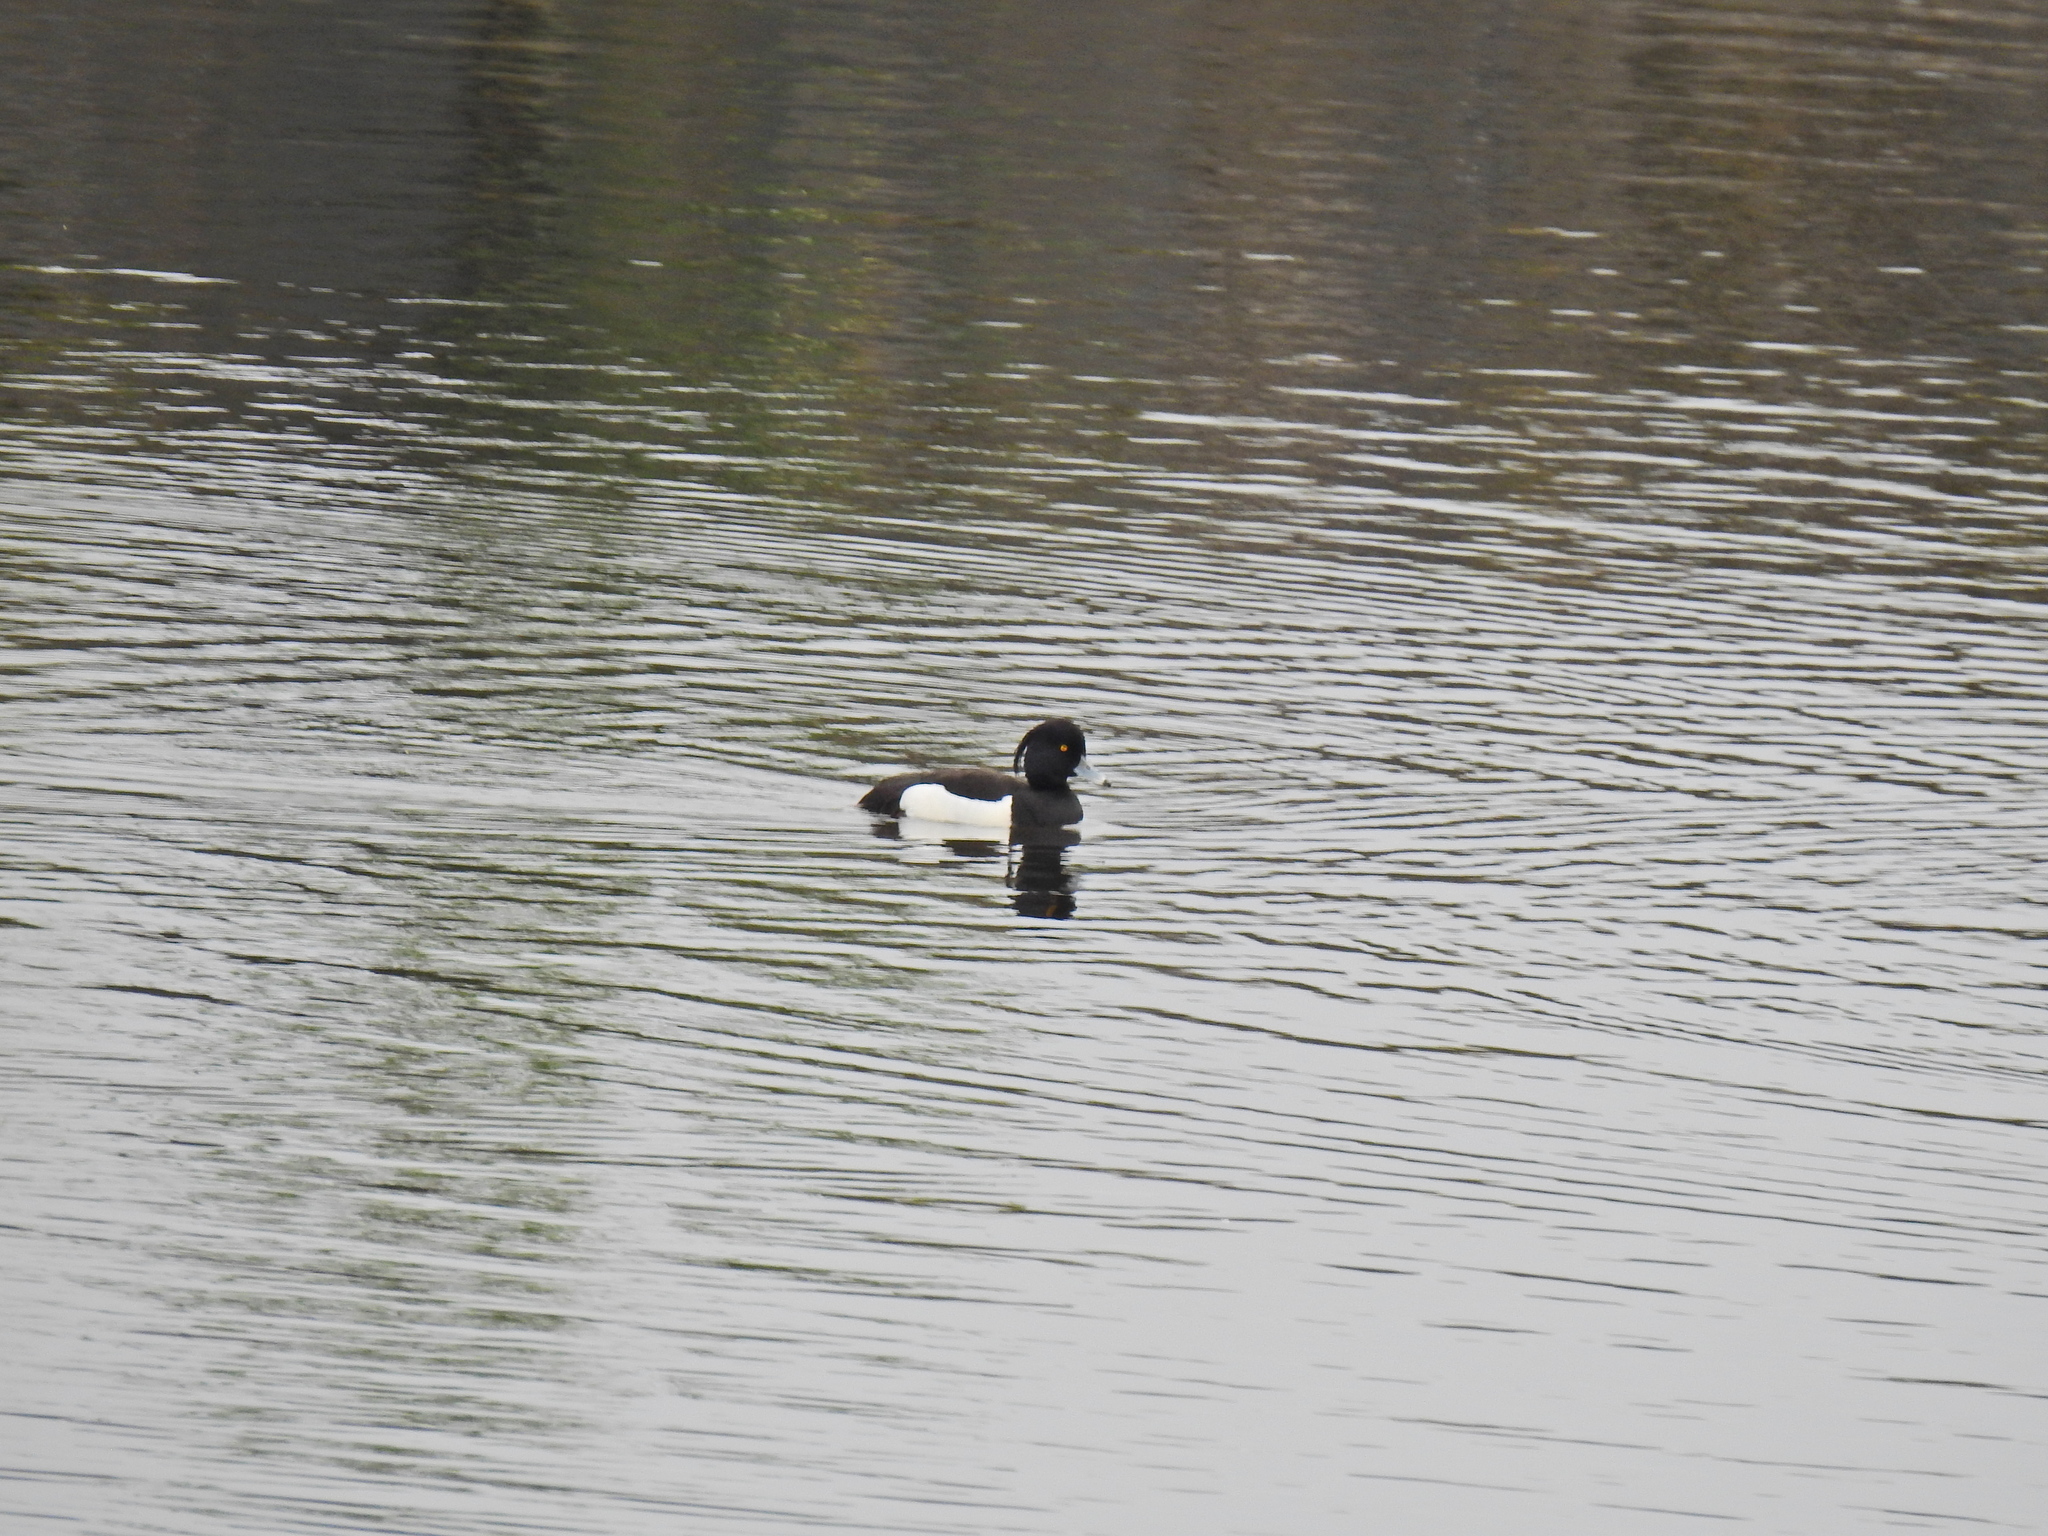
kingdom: Animalia
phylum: Chordata
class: Aves
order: Anseriformes
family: Anatidae
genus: Aythya
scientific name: Aythya fuligula
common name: Tufted duck
